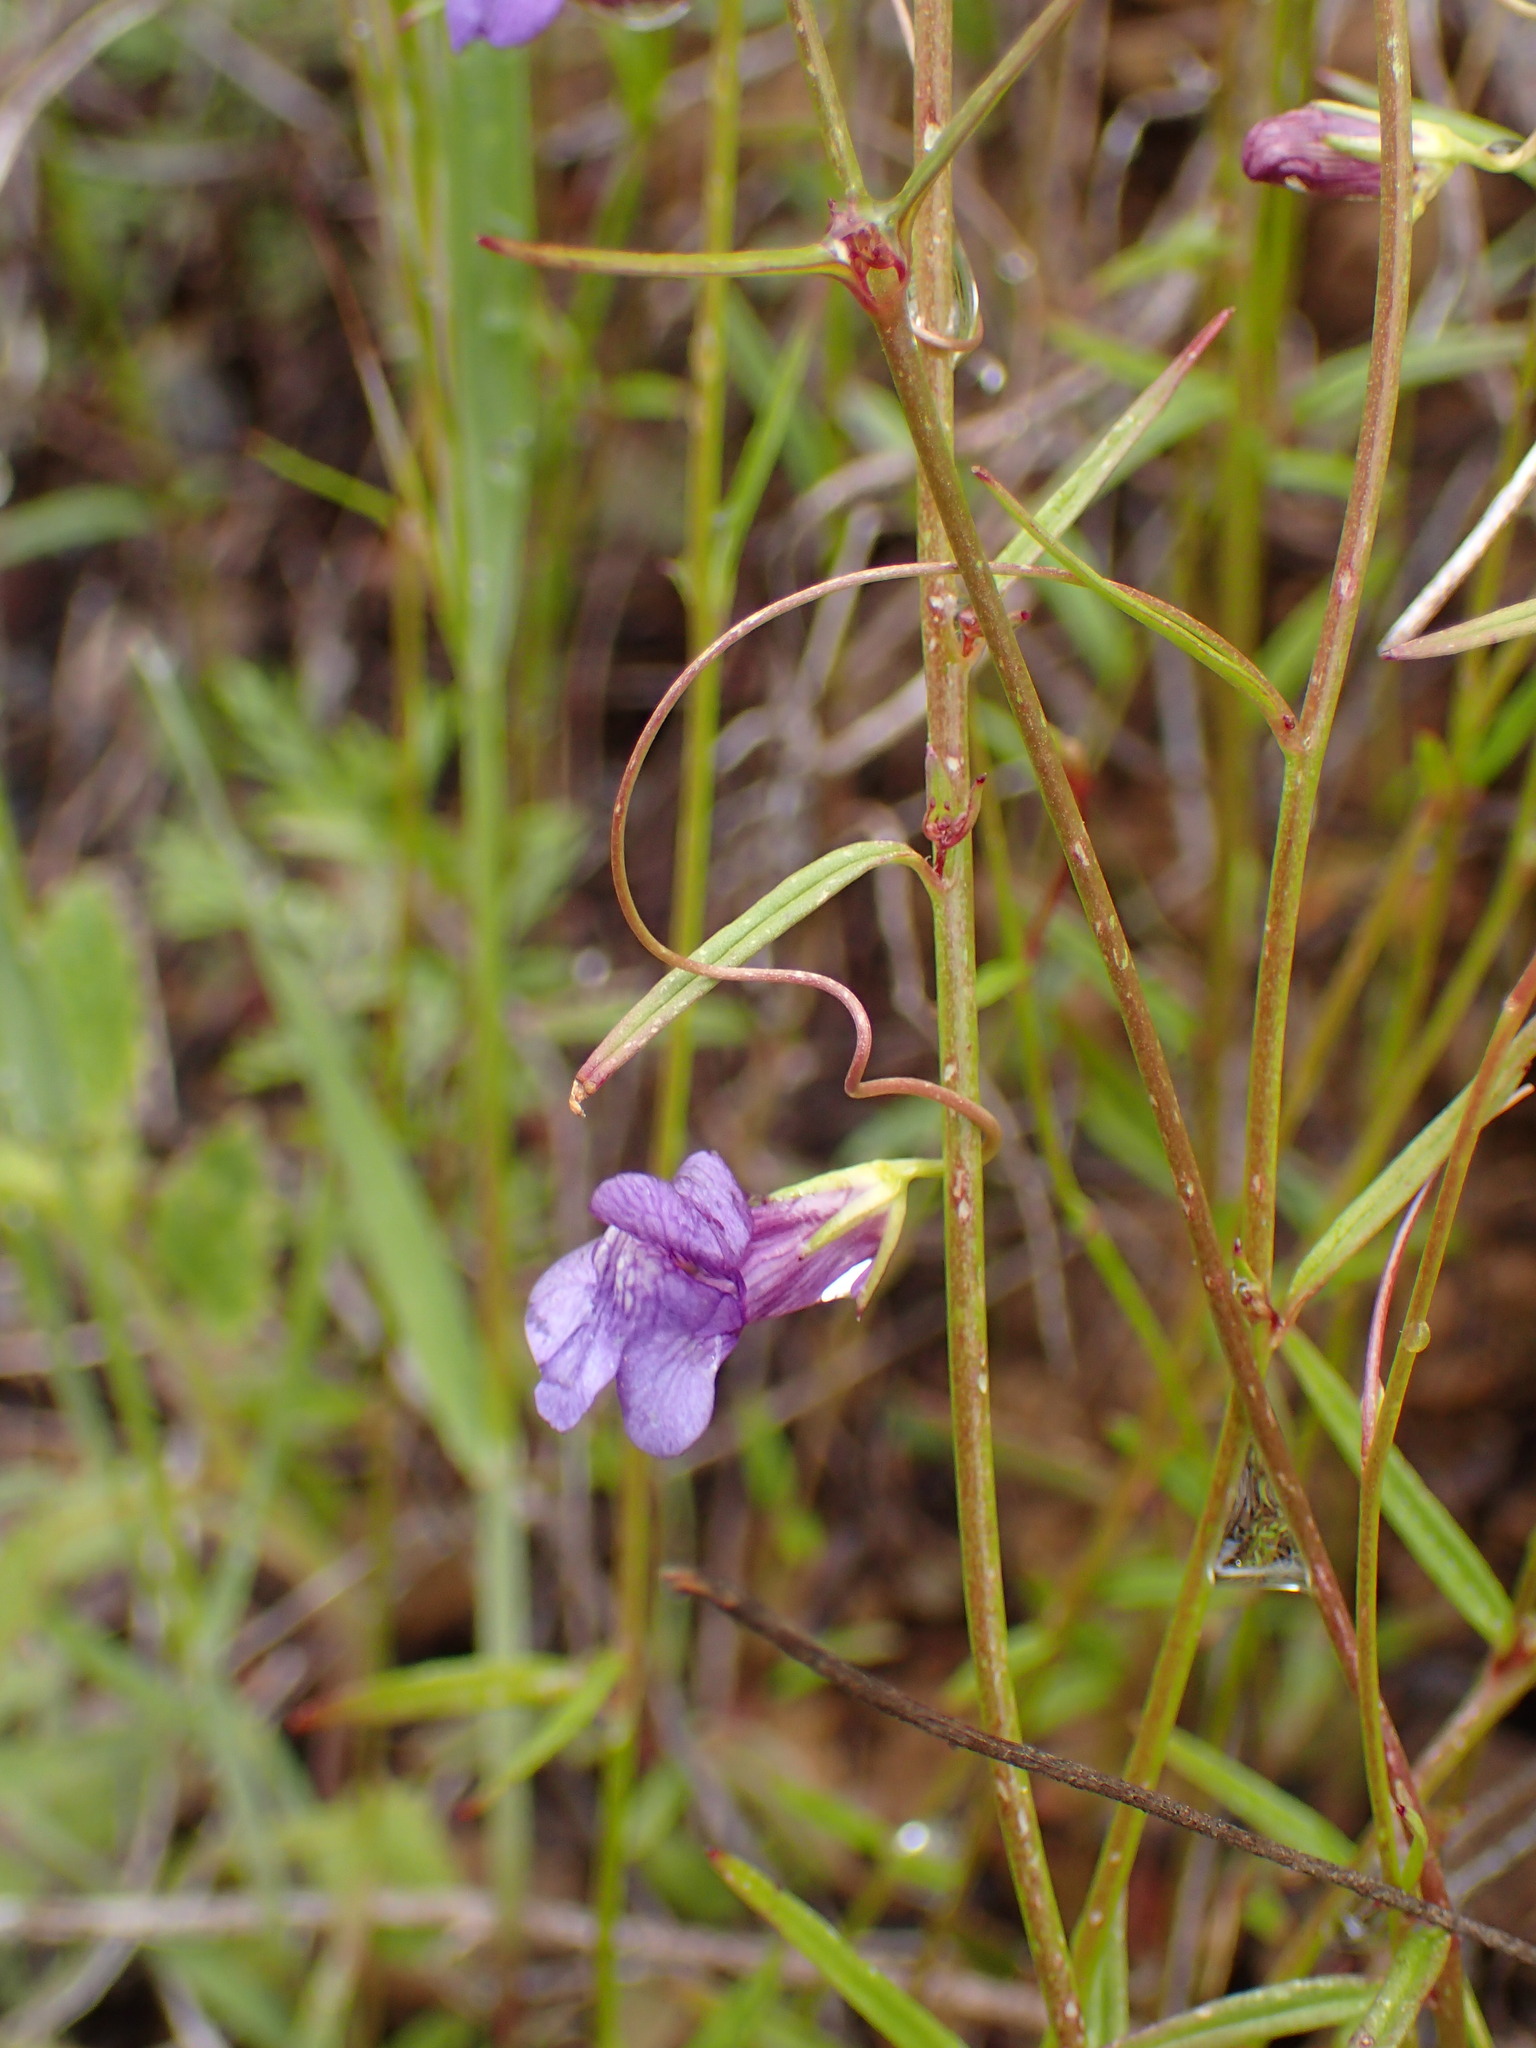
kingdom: Plantae
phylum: Tracheophyta
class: Magnoliopsida
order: Lamiales
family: Plantaginaceae
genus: Neogaerrhinum
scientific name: Neogaerrhinum strictum
